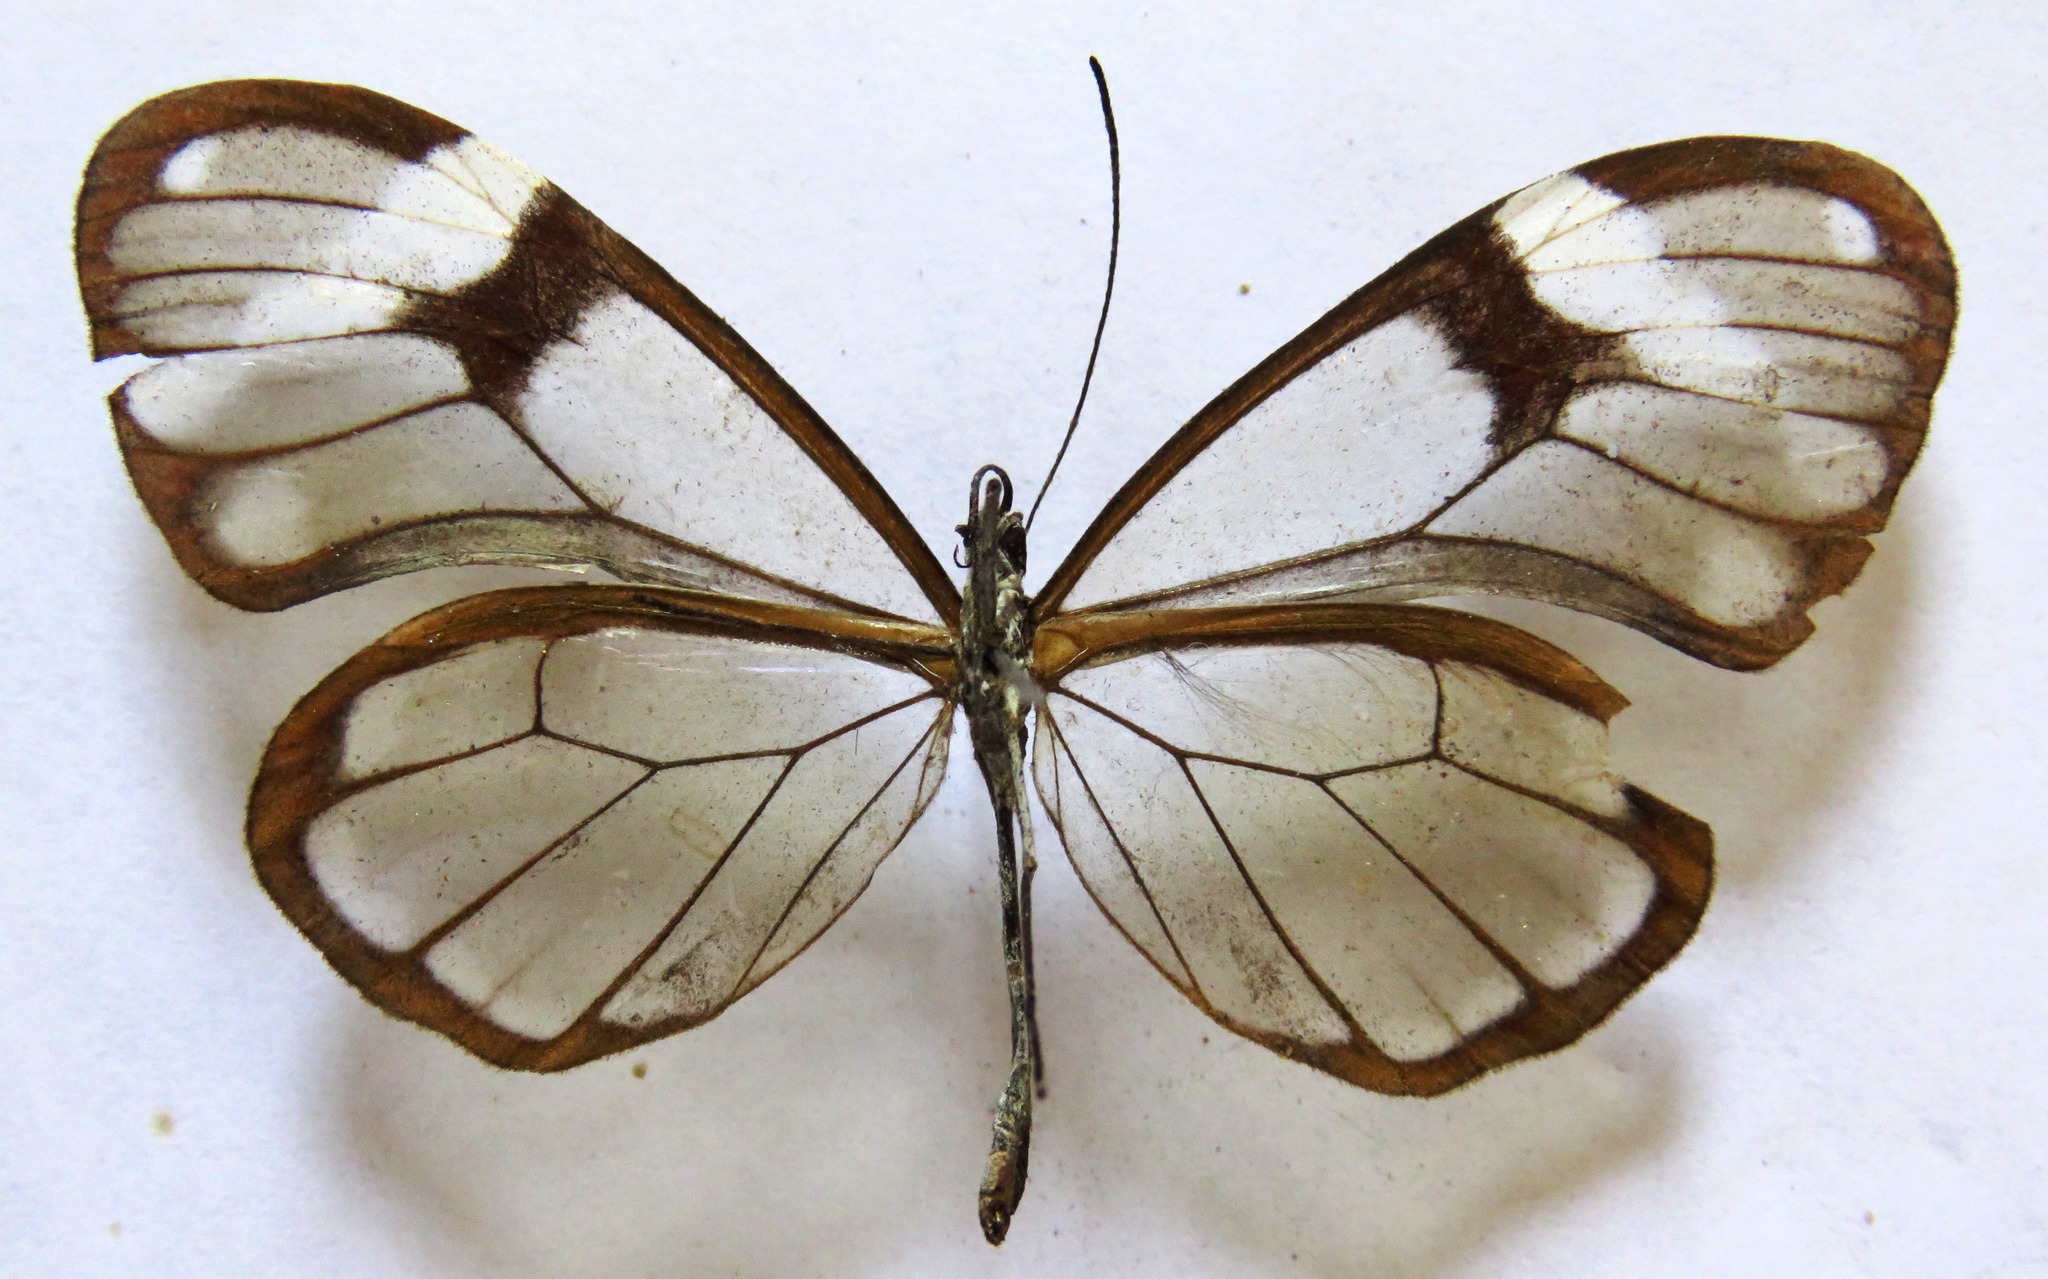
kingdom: Animalia
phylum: Arthropoda
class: Insecta
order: Lepidoptera
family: Nymphalidae
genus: Godyris
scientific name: Godyris nero
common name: Nero clearwing
